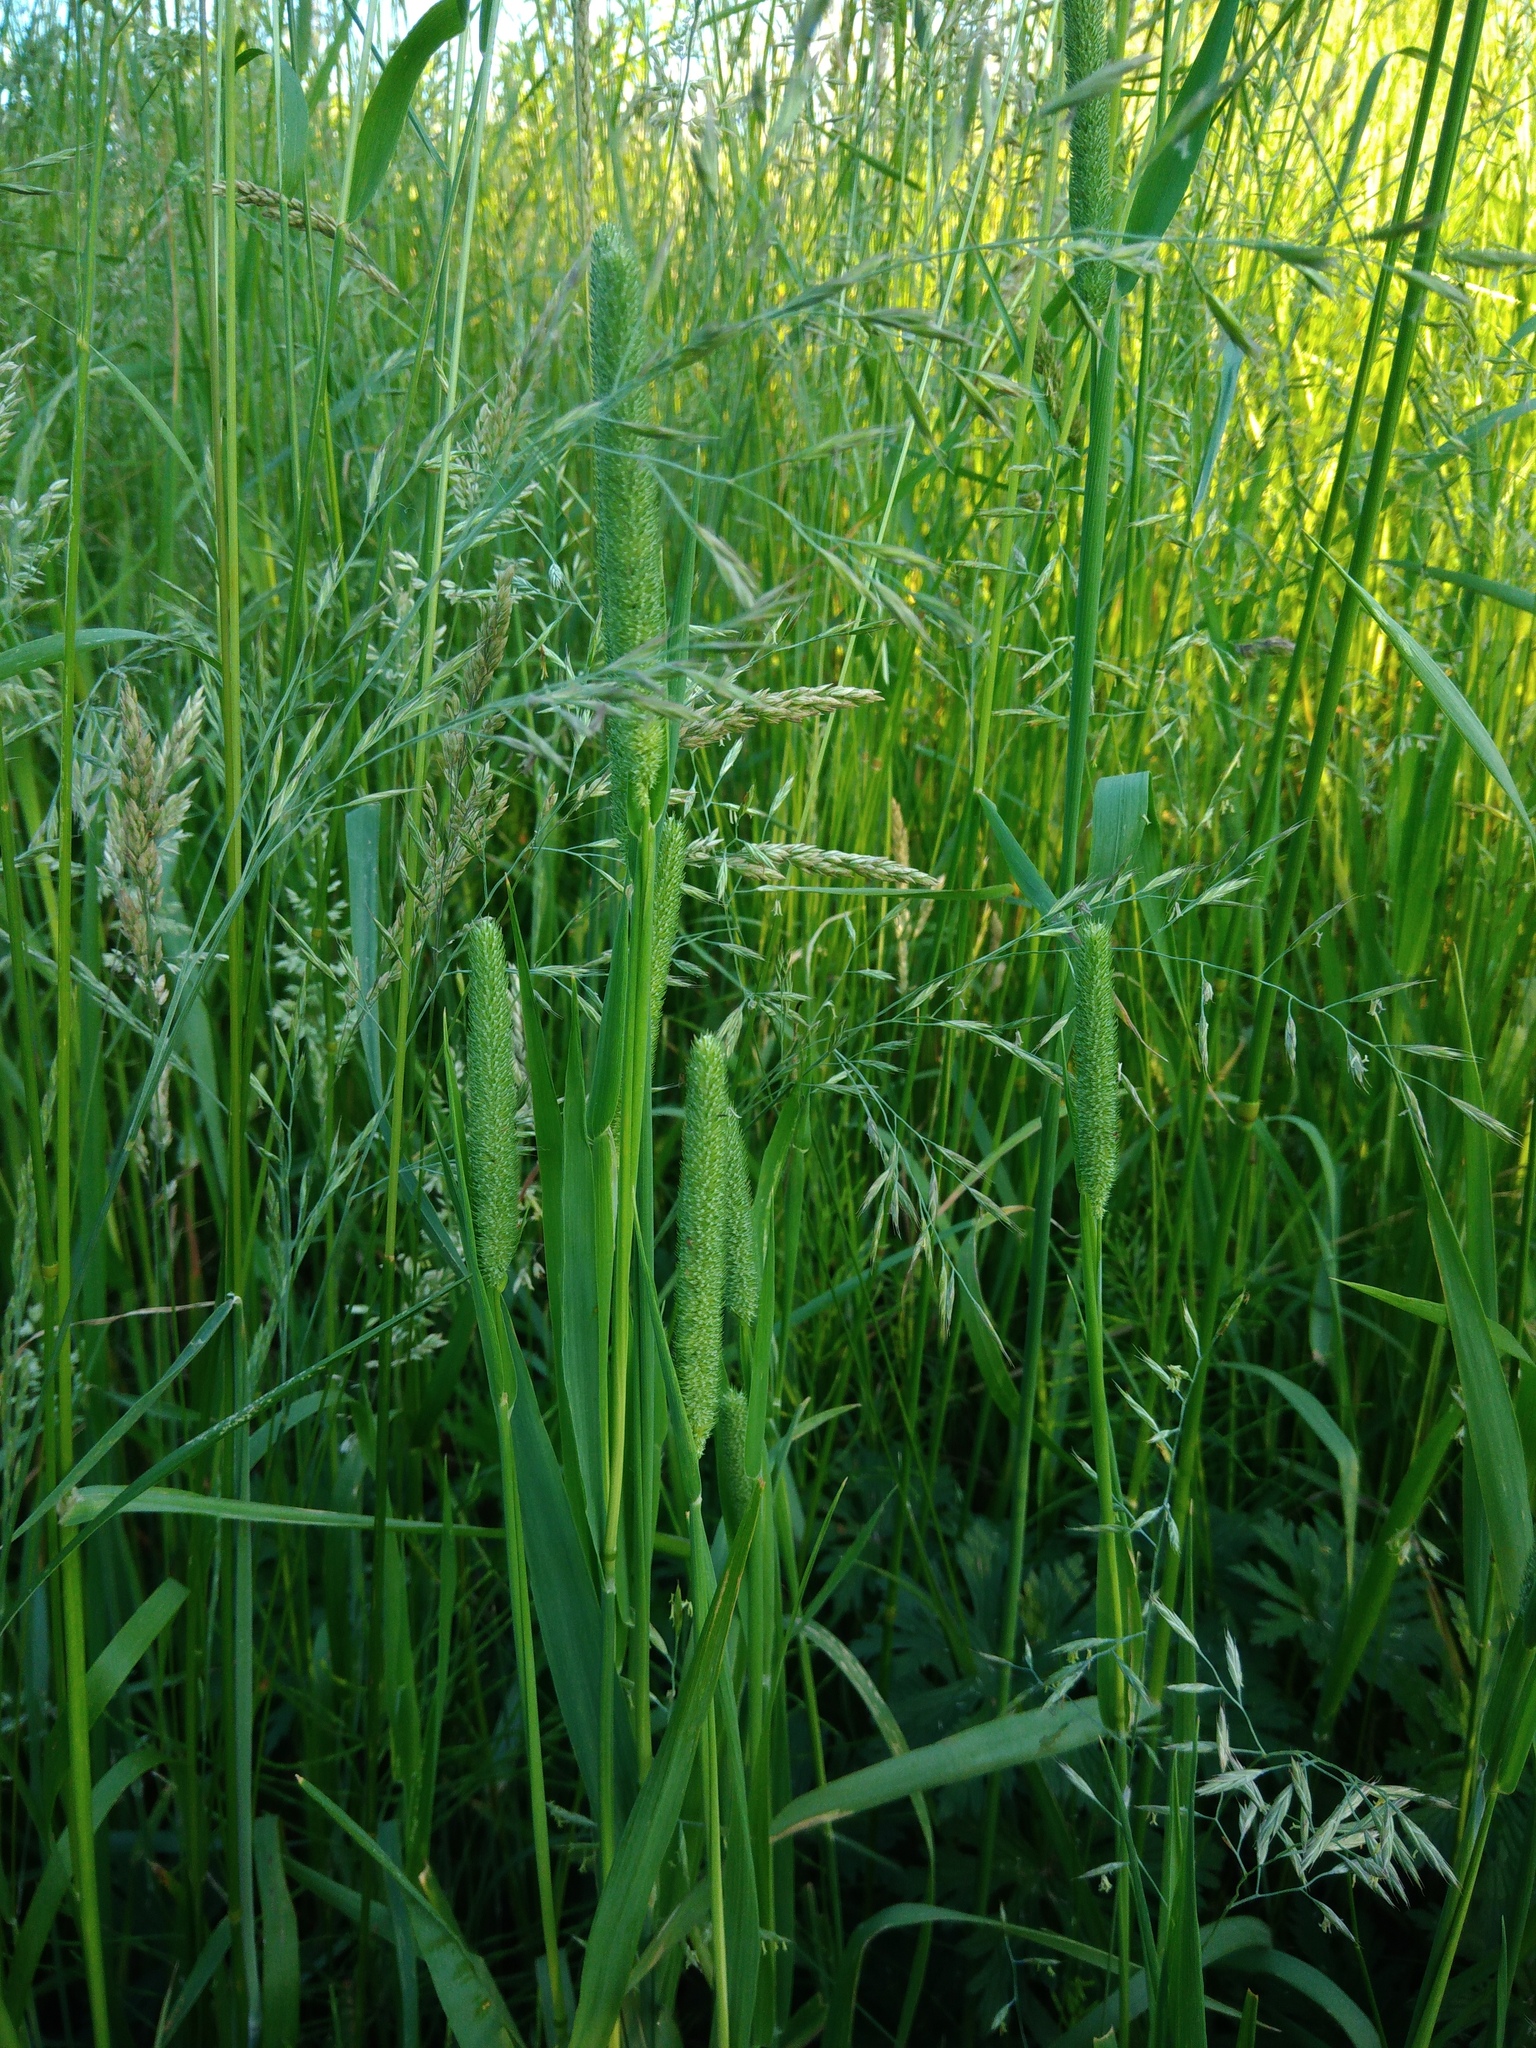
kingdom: Plantae
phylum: Tracheophyta
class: Liliopsida
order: Poales
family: Poaceae
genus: Phleum
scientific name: Phleum pratense
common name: Timothy grass
